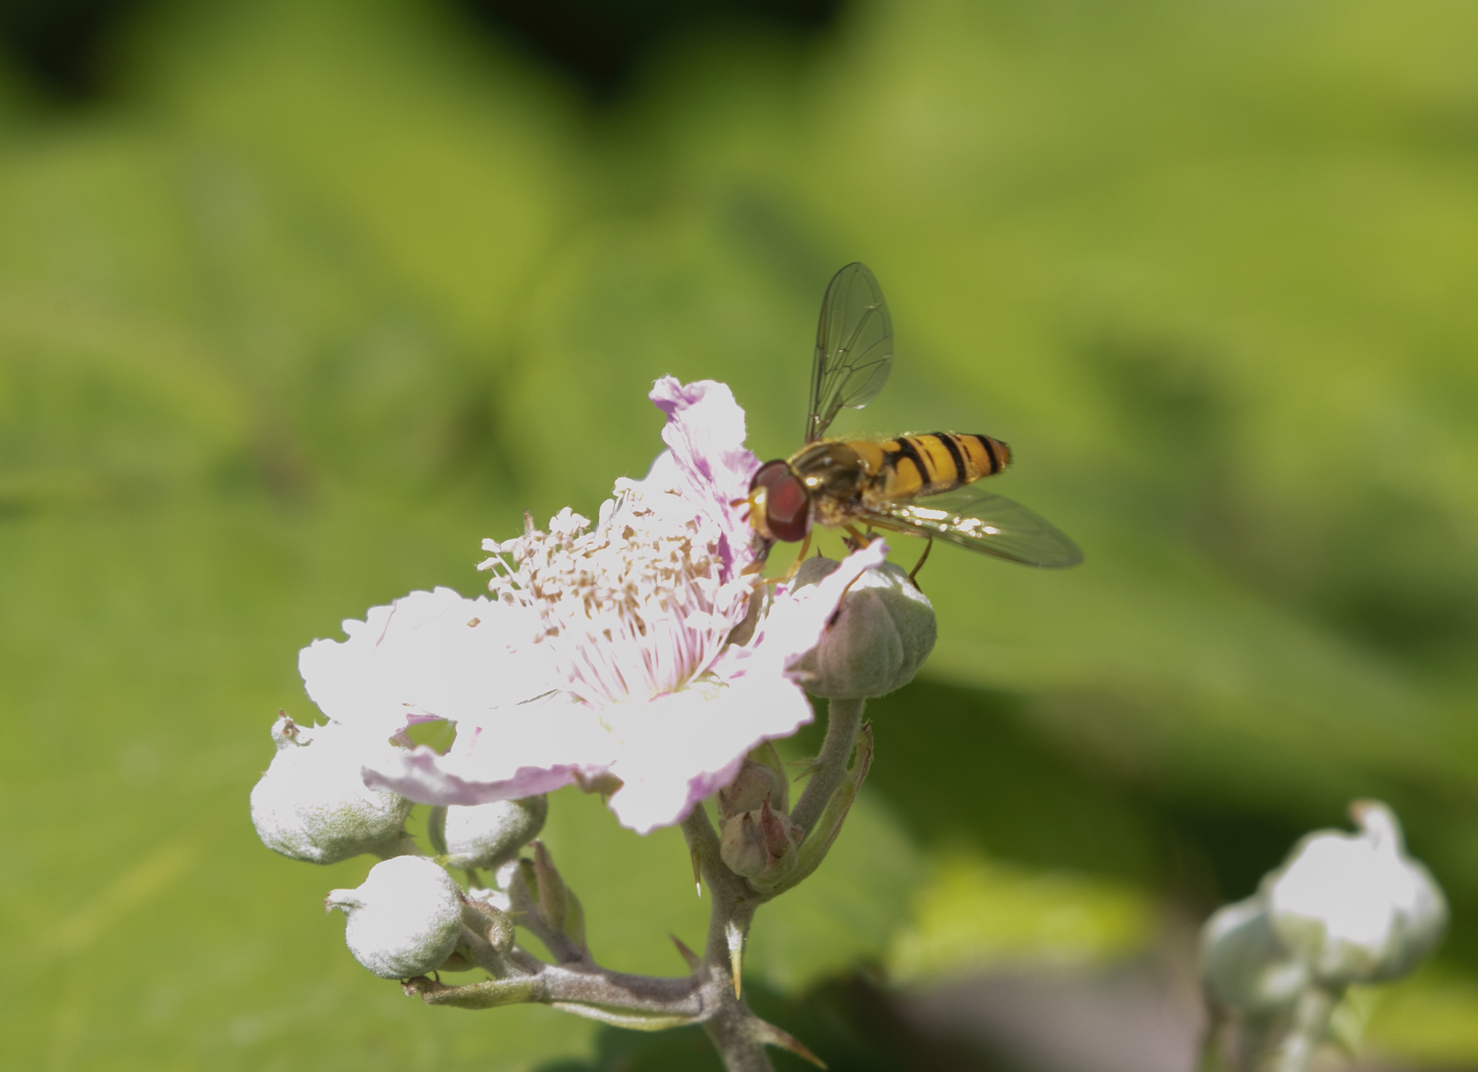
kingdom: Animalia
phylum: Arthropoda
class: Insecta
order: Diptera
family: Syrphidae
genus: Episyrphus
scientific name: Episyrphus balteatus
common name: Marmalade hoverfly
